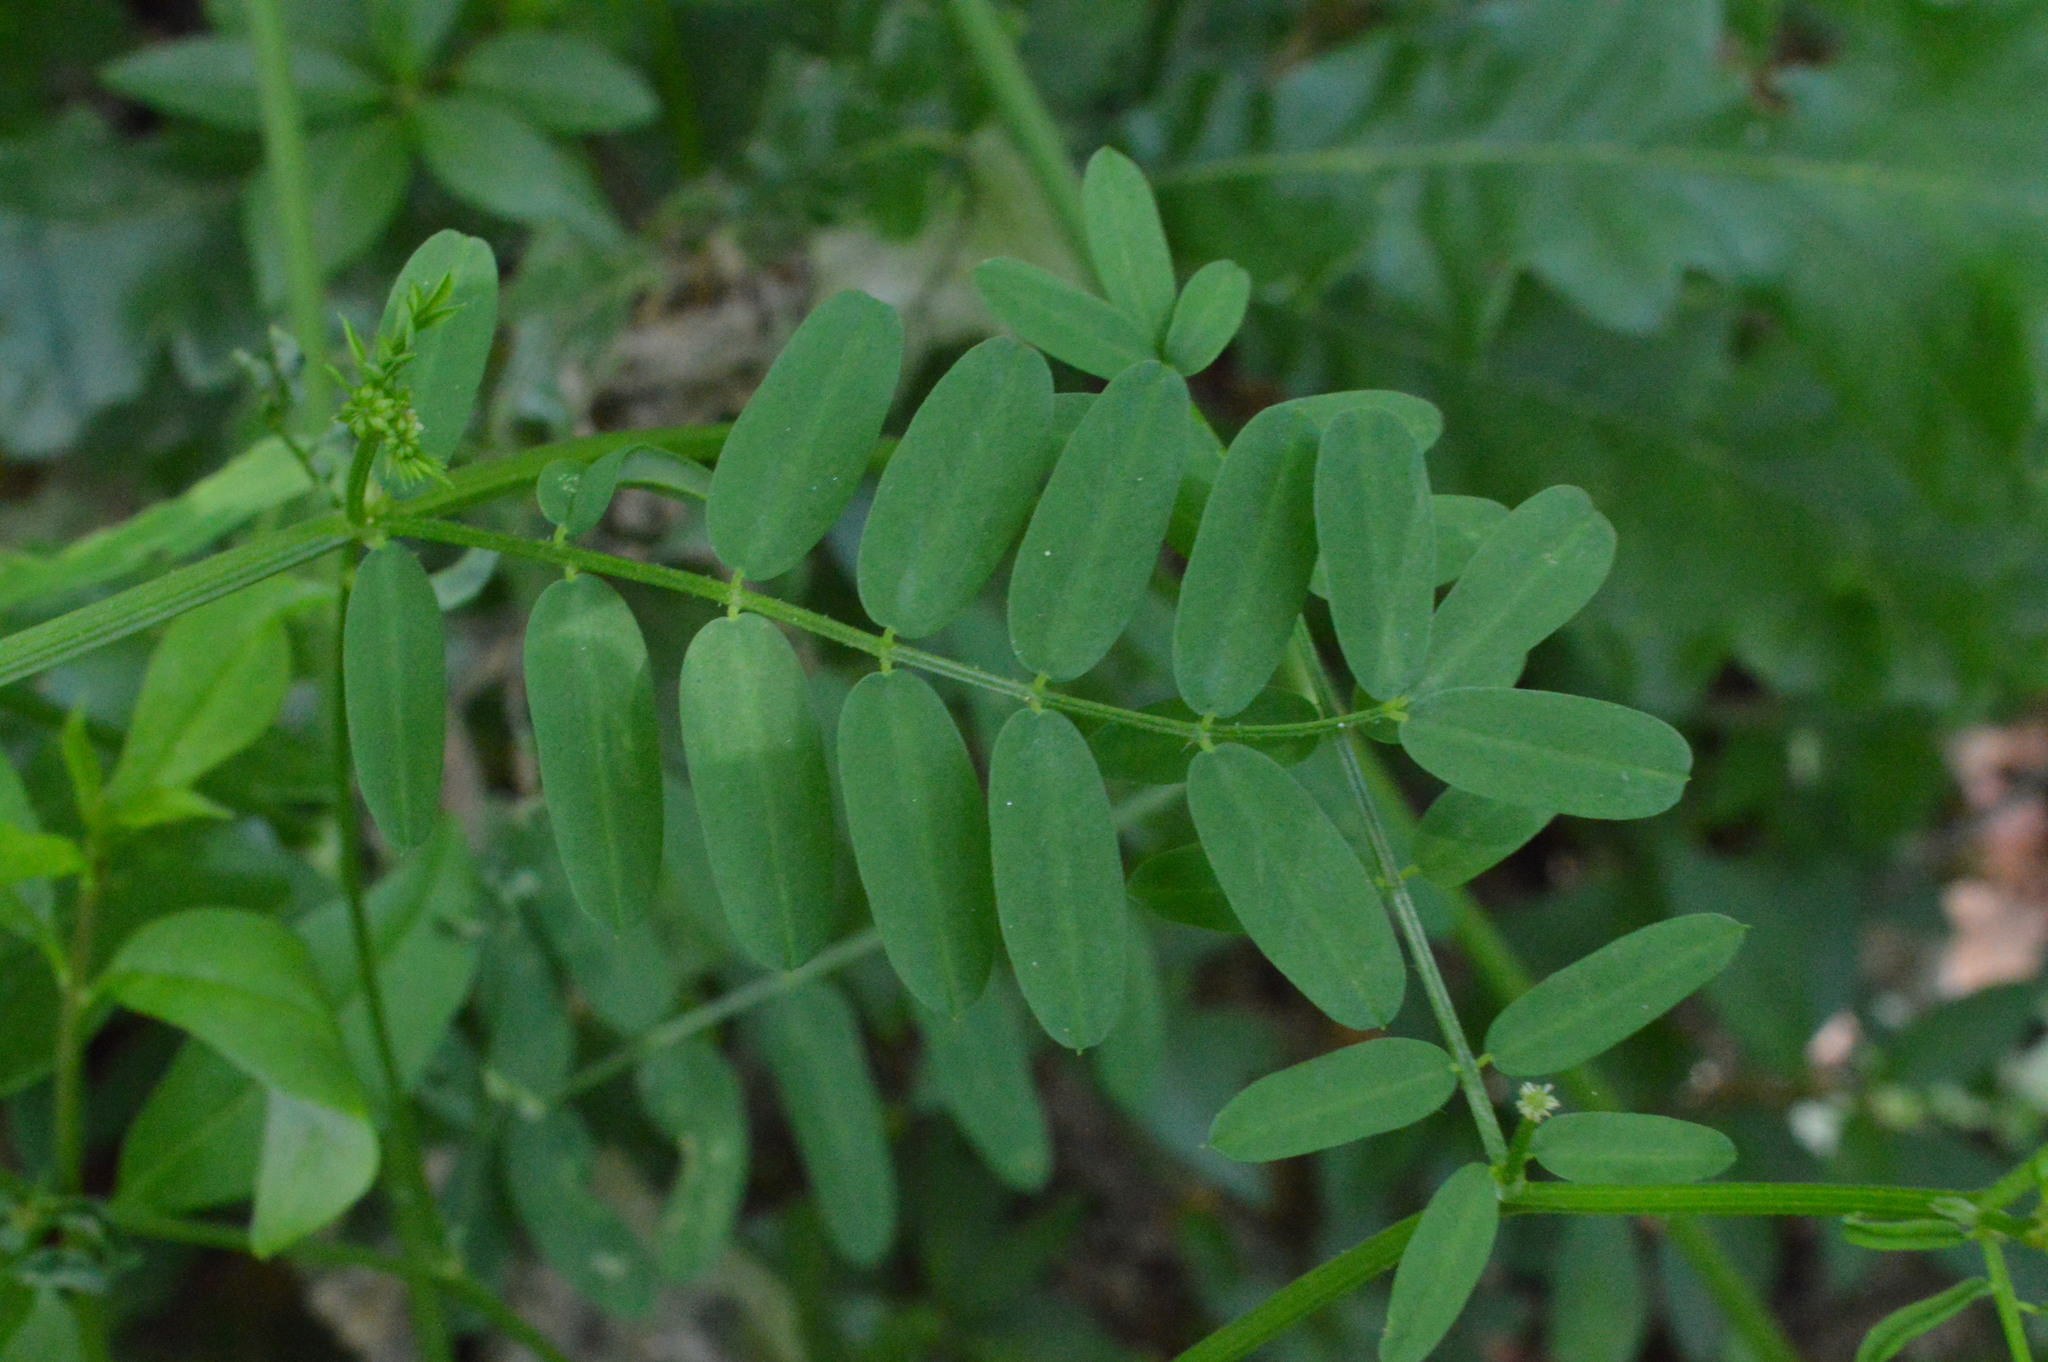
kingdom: Plantae
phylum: Tracheophyta
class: Magnoliopsida
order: Fabales
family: Fabaceae
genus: Coronilla
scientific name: Coronilla varia
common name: Crownvetch
